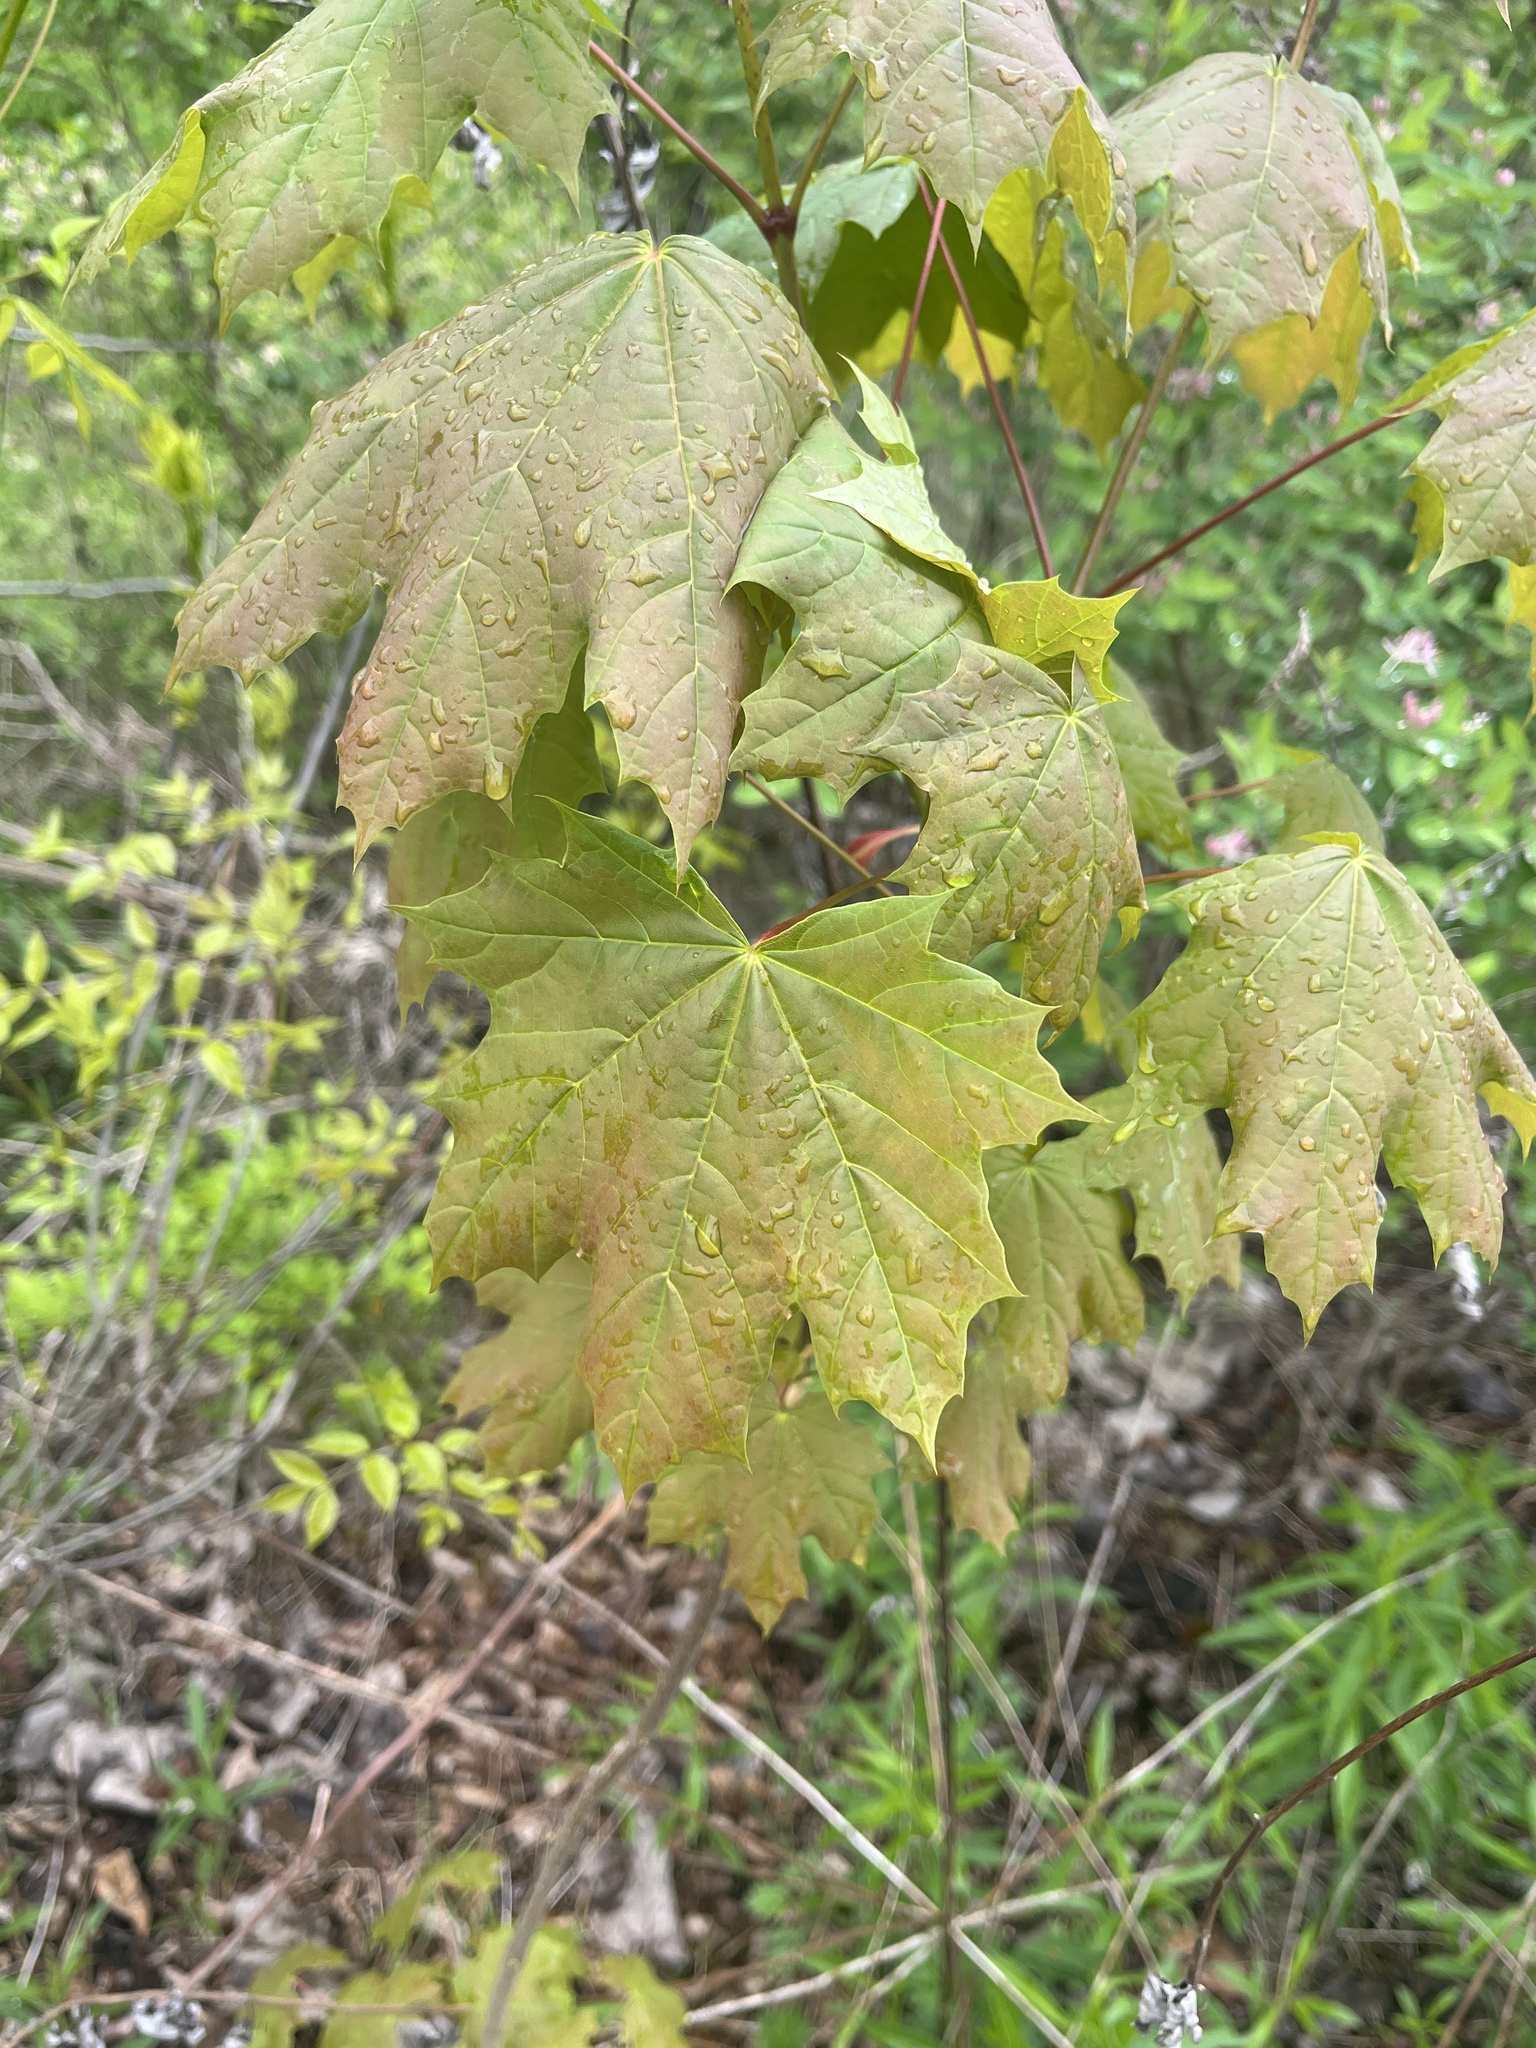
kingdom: Plantae
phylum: Tracheophyta
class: Magnoliopsida
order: Sapindales
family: Sapindaceae
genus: Acer
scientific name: Acer platanoides
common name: Norway maple
